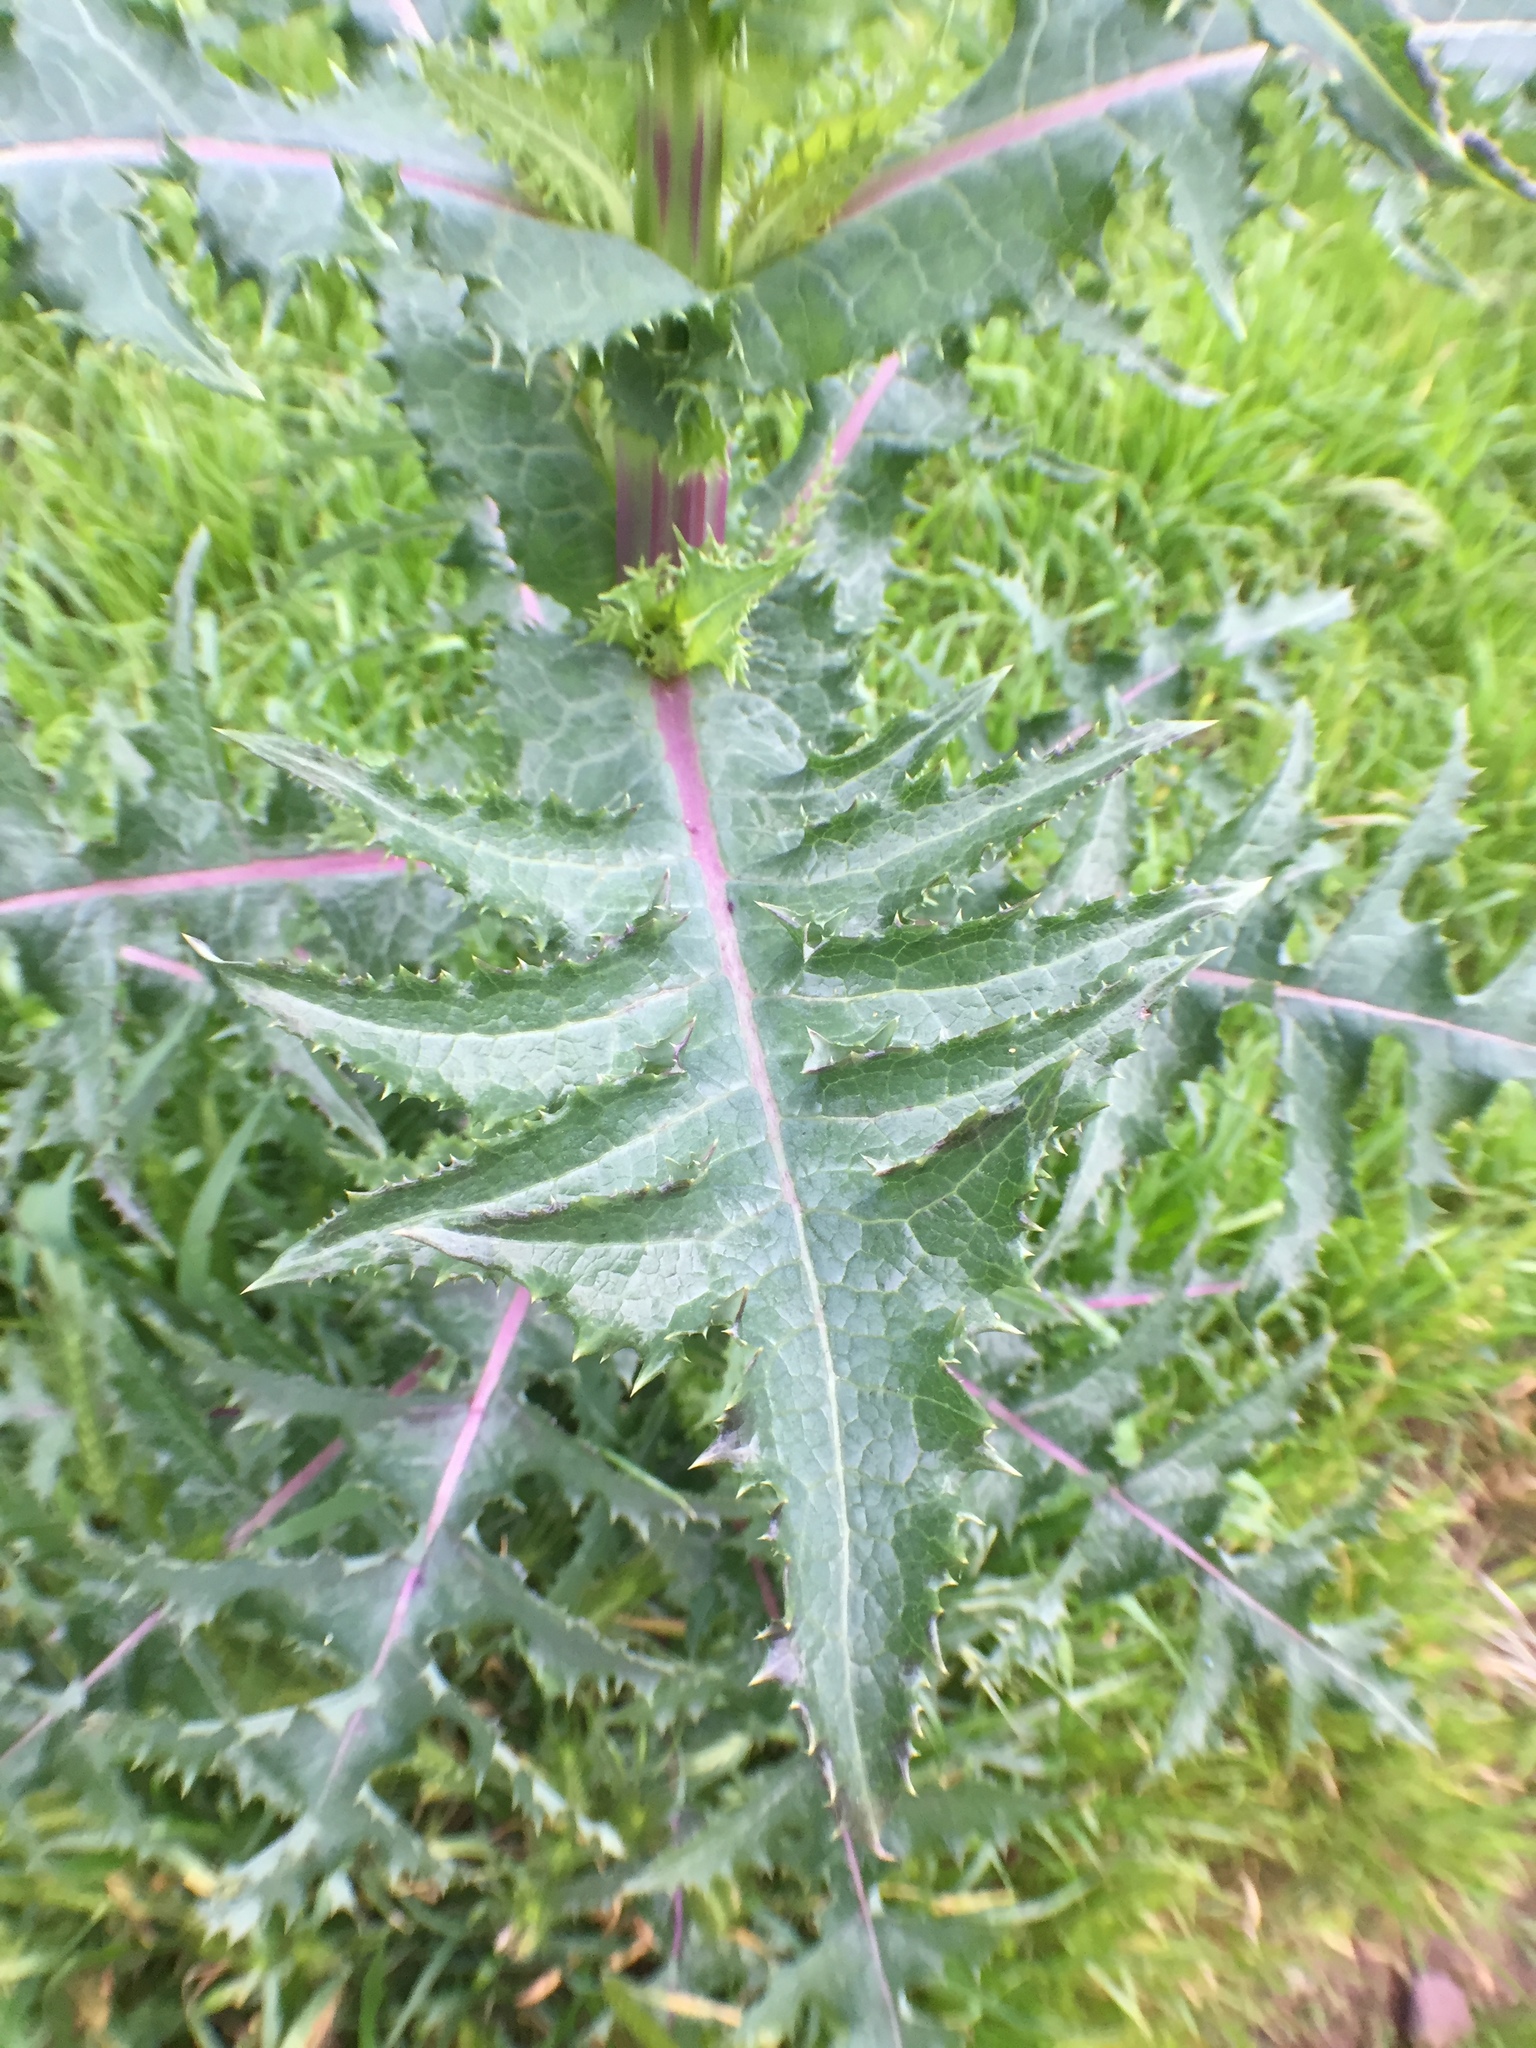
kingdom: Plantae
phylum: Tracheophyta
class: Magnoliopsida
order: Asterales
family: Asteraceae
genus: Sonchus
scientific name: Sonchus asper
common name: Prickly sow-thistle
